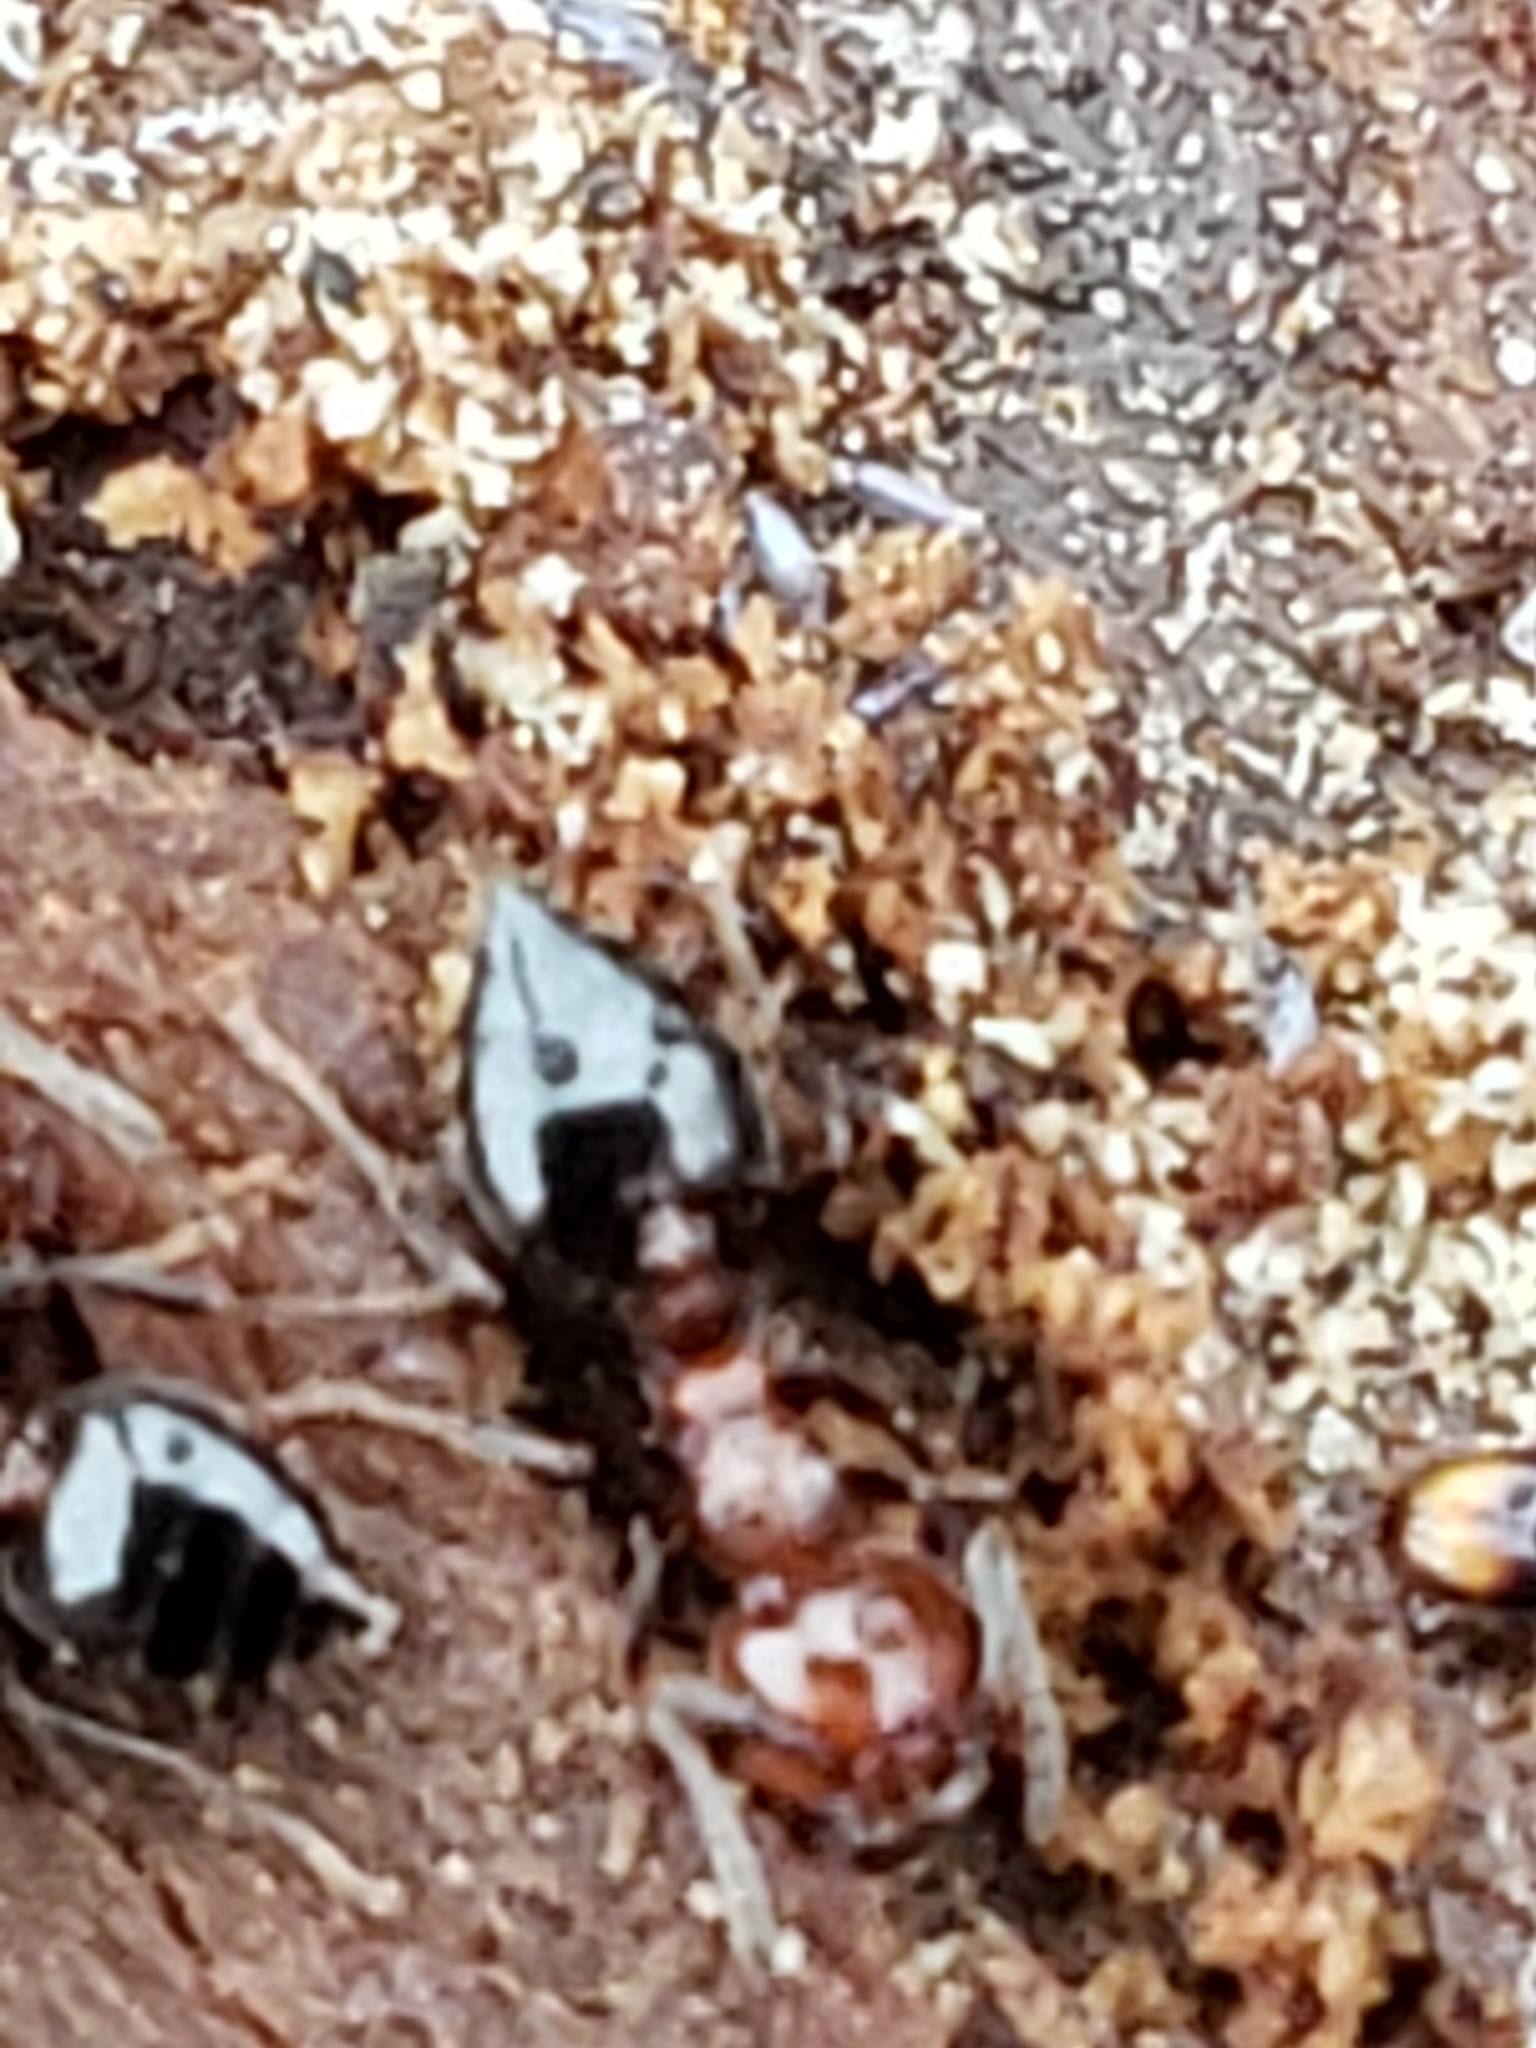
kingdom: Animalia
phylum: Arthropoda
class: Insecta
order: Hymenoptera
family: Formicidae
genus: Crematogaster
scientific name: Crematogaster pilosa
